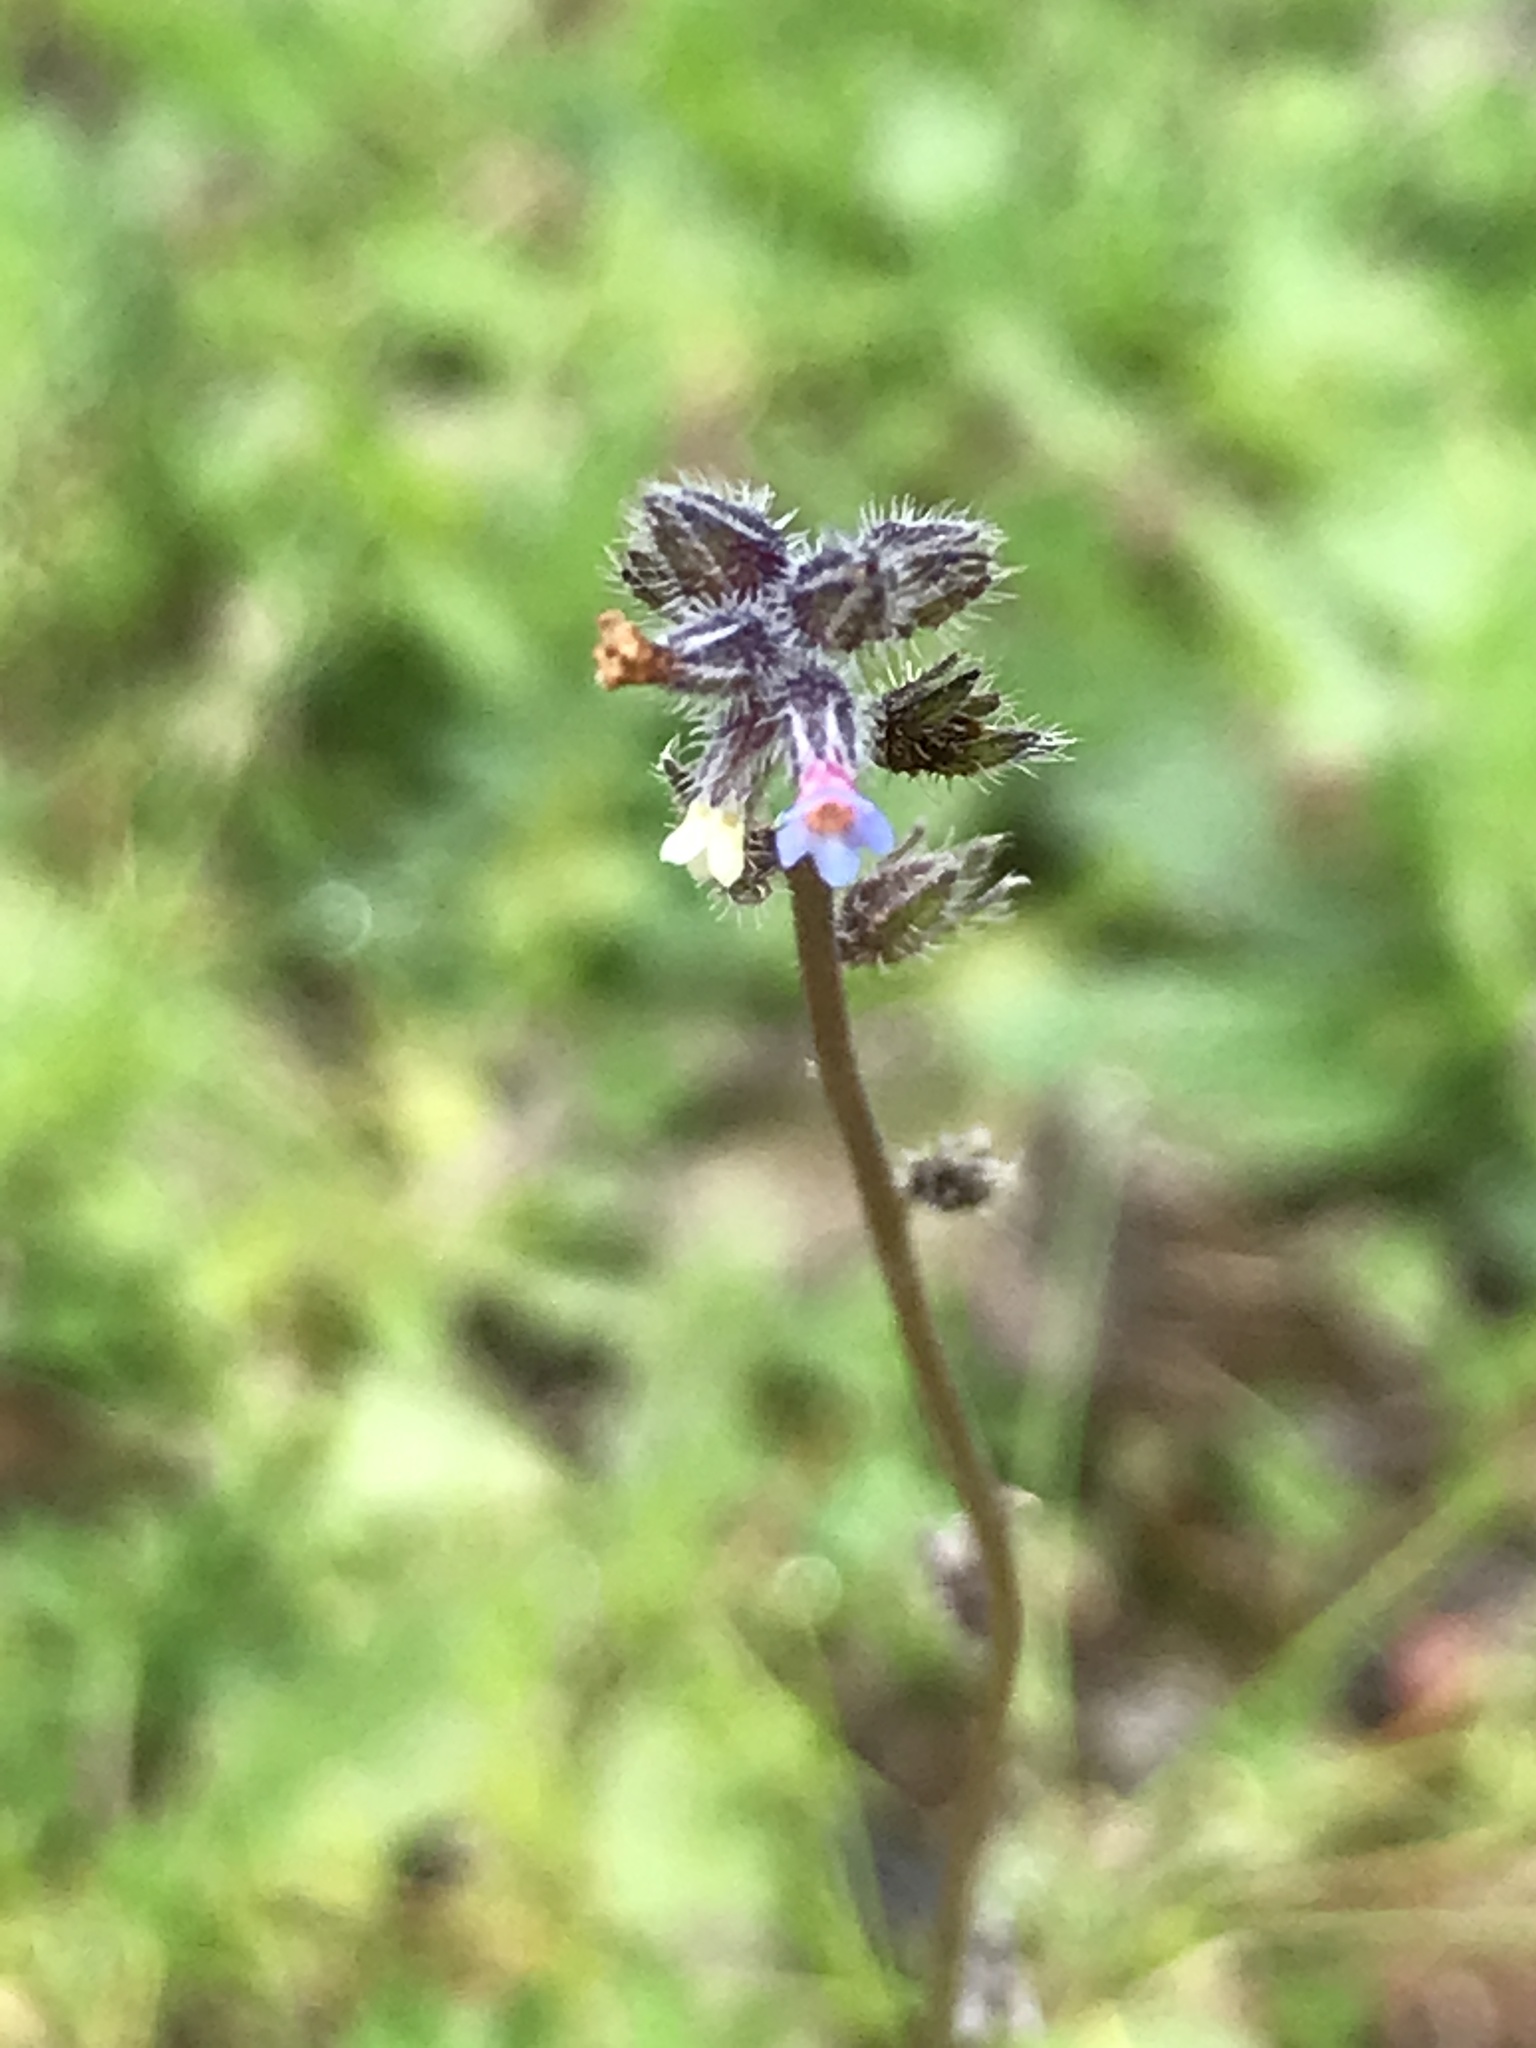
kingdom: Plantae
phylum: Tracheophyta
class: Magnoliopsida
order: Boraginales
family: Boraginaceae
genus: Myosotis
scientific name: Myosotis discolor
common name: Changing forget-me-not
